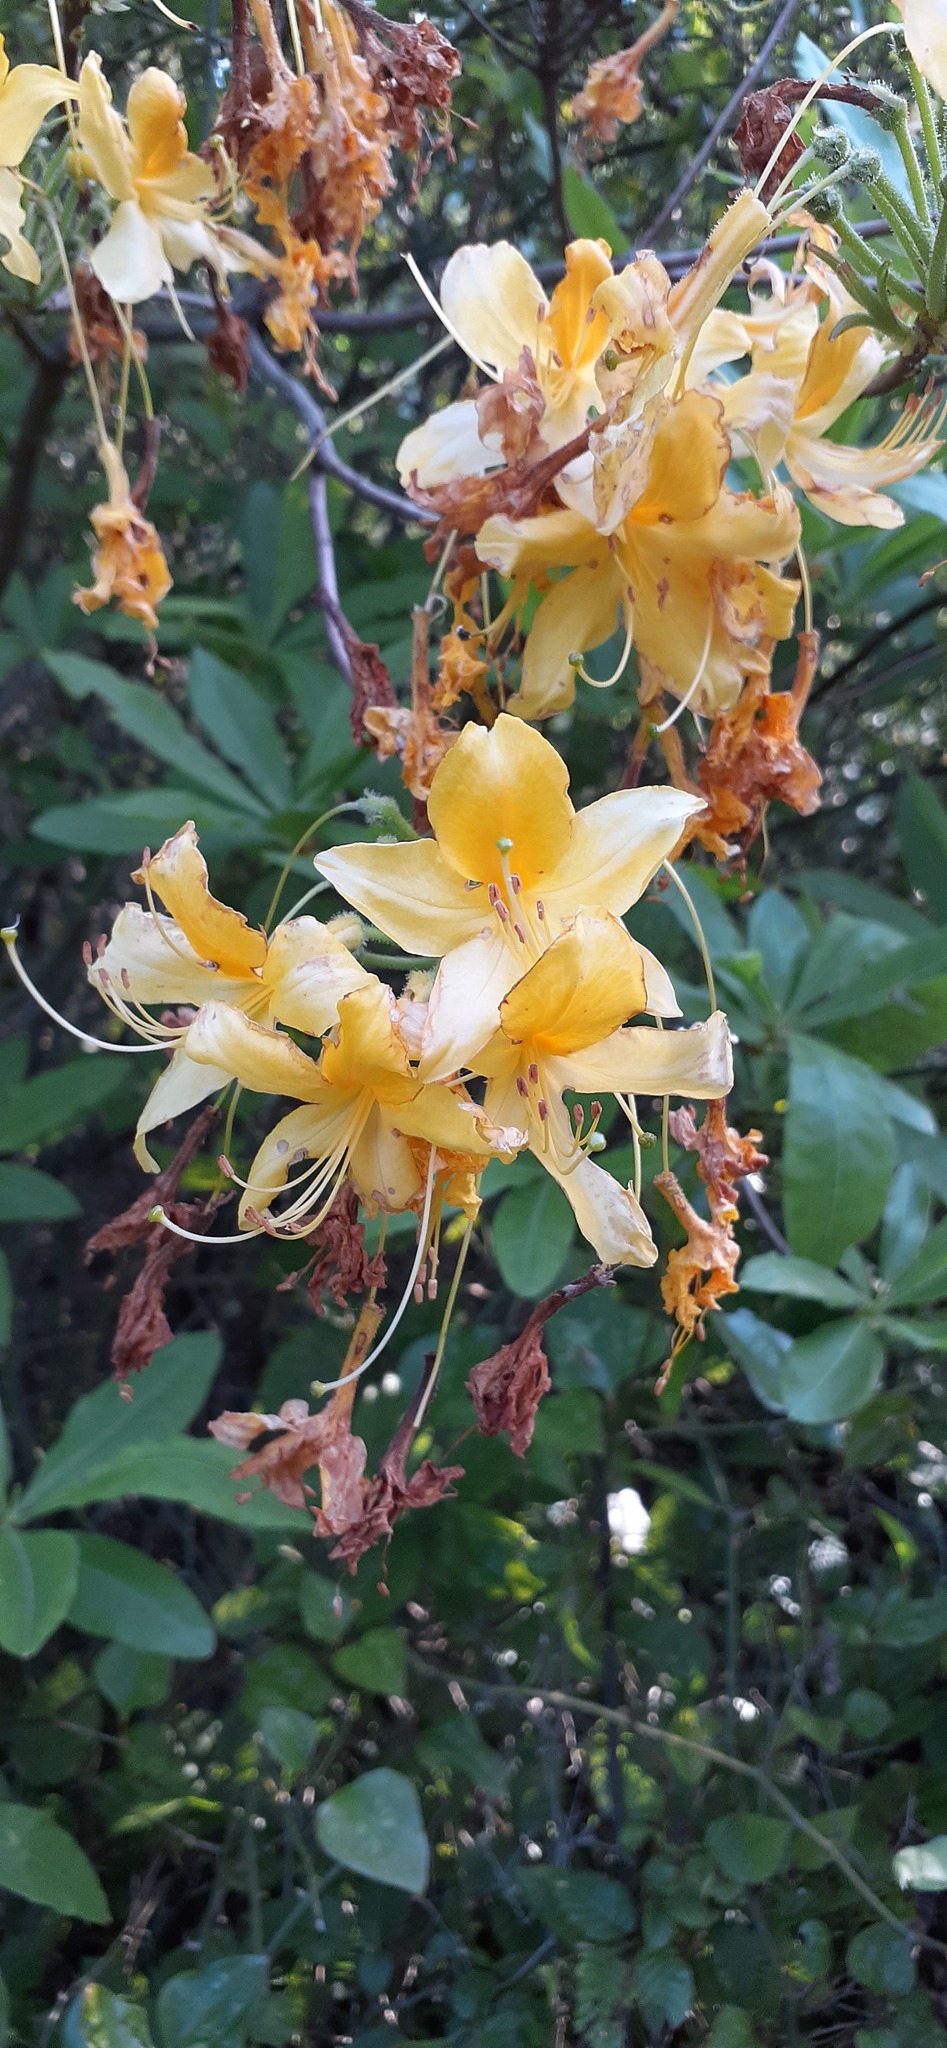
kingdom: Plantae
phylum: Tracheophyta
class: Magnoliopsida
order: Ericales
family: Ericaceae
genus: Rhododendron
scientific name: Rhododendron luteum
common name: Yellow azalea
